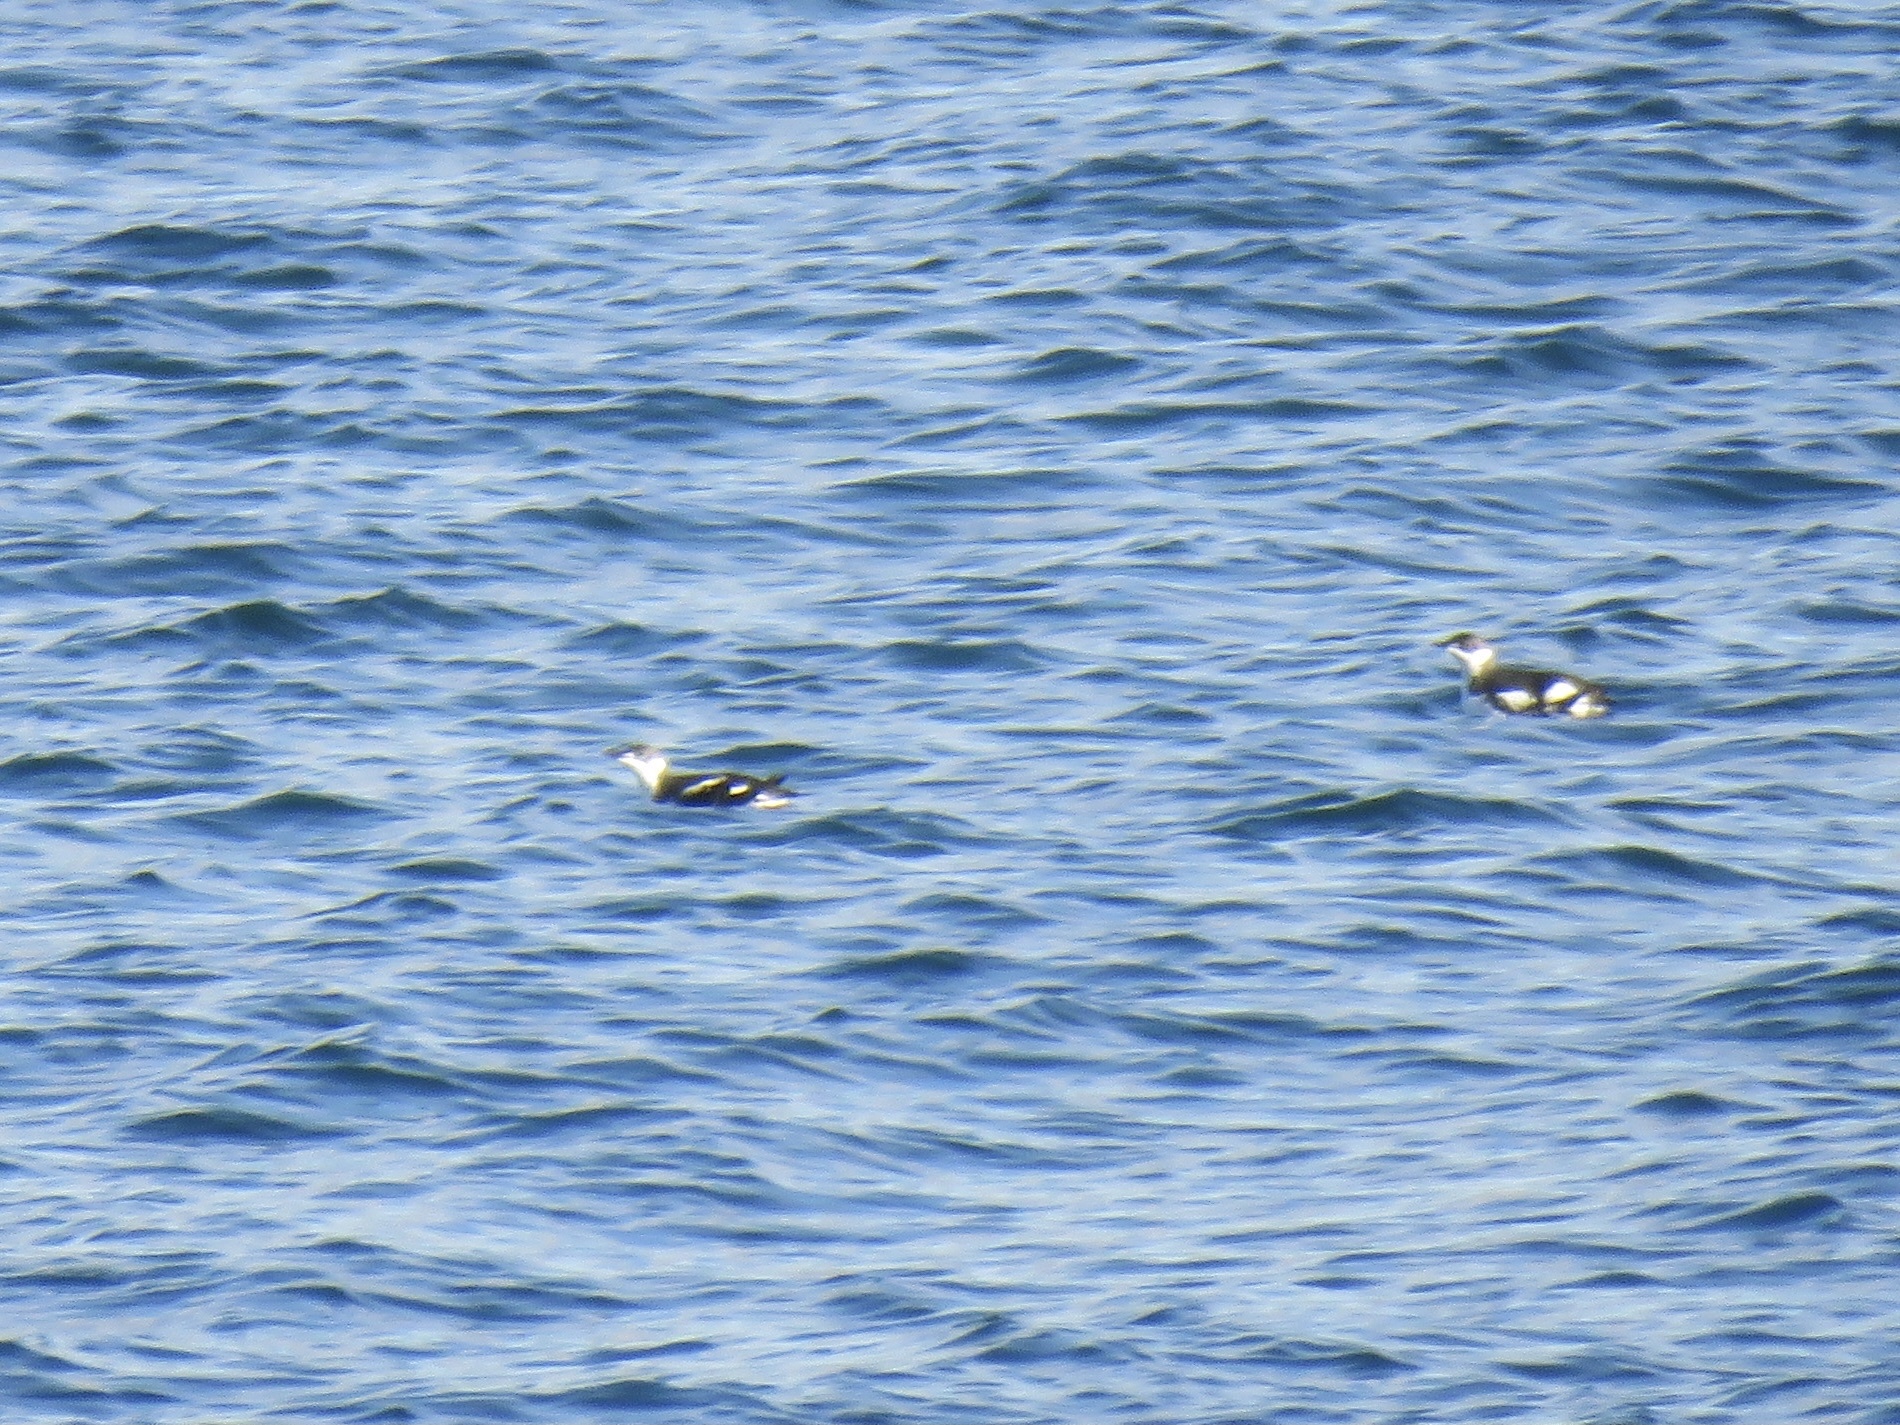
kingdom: Animalia
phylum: Chordata
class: Aves
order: Charadriiformes
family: Alcidae
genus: Brachyramphus
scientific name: Brachyramphus marmoratus
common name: Marbled murrelet
